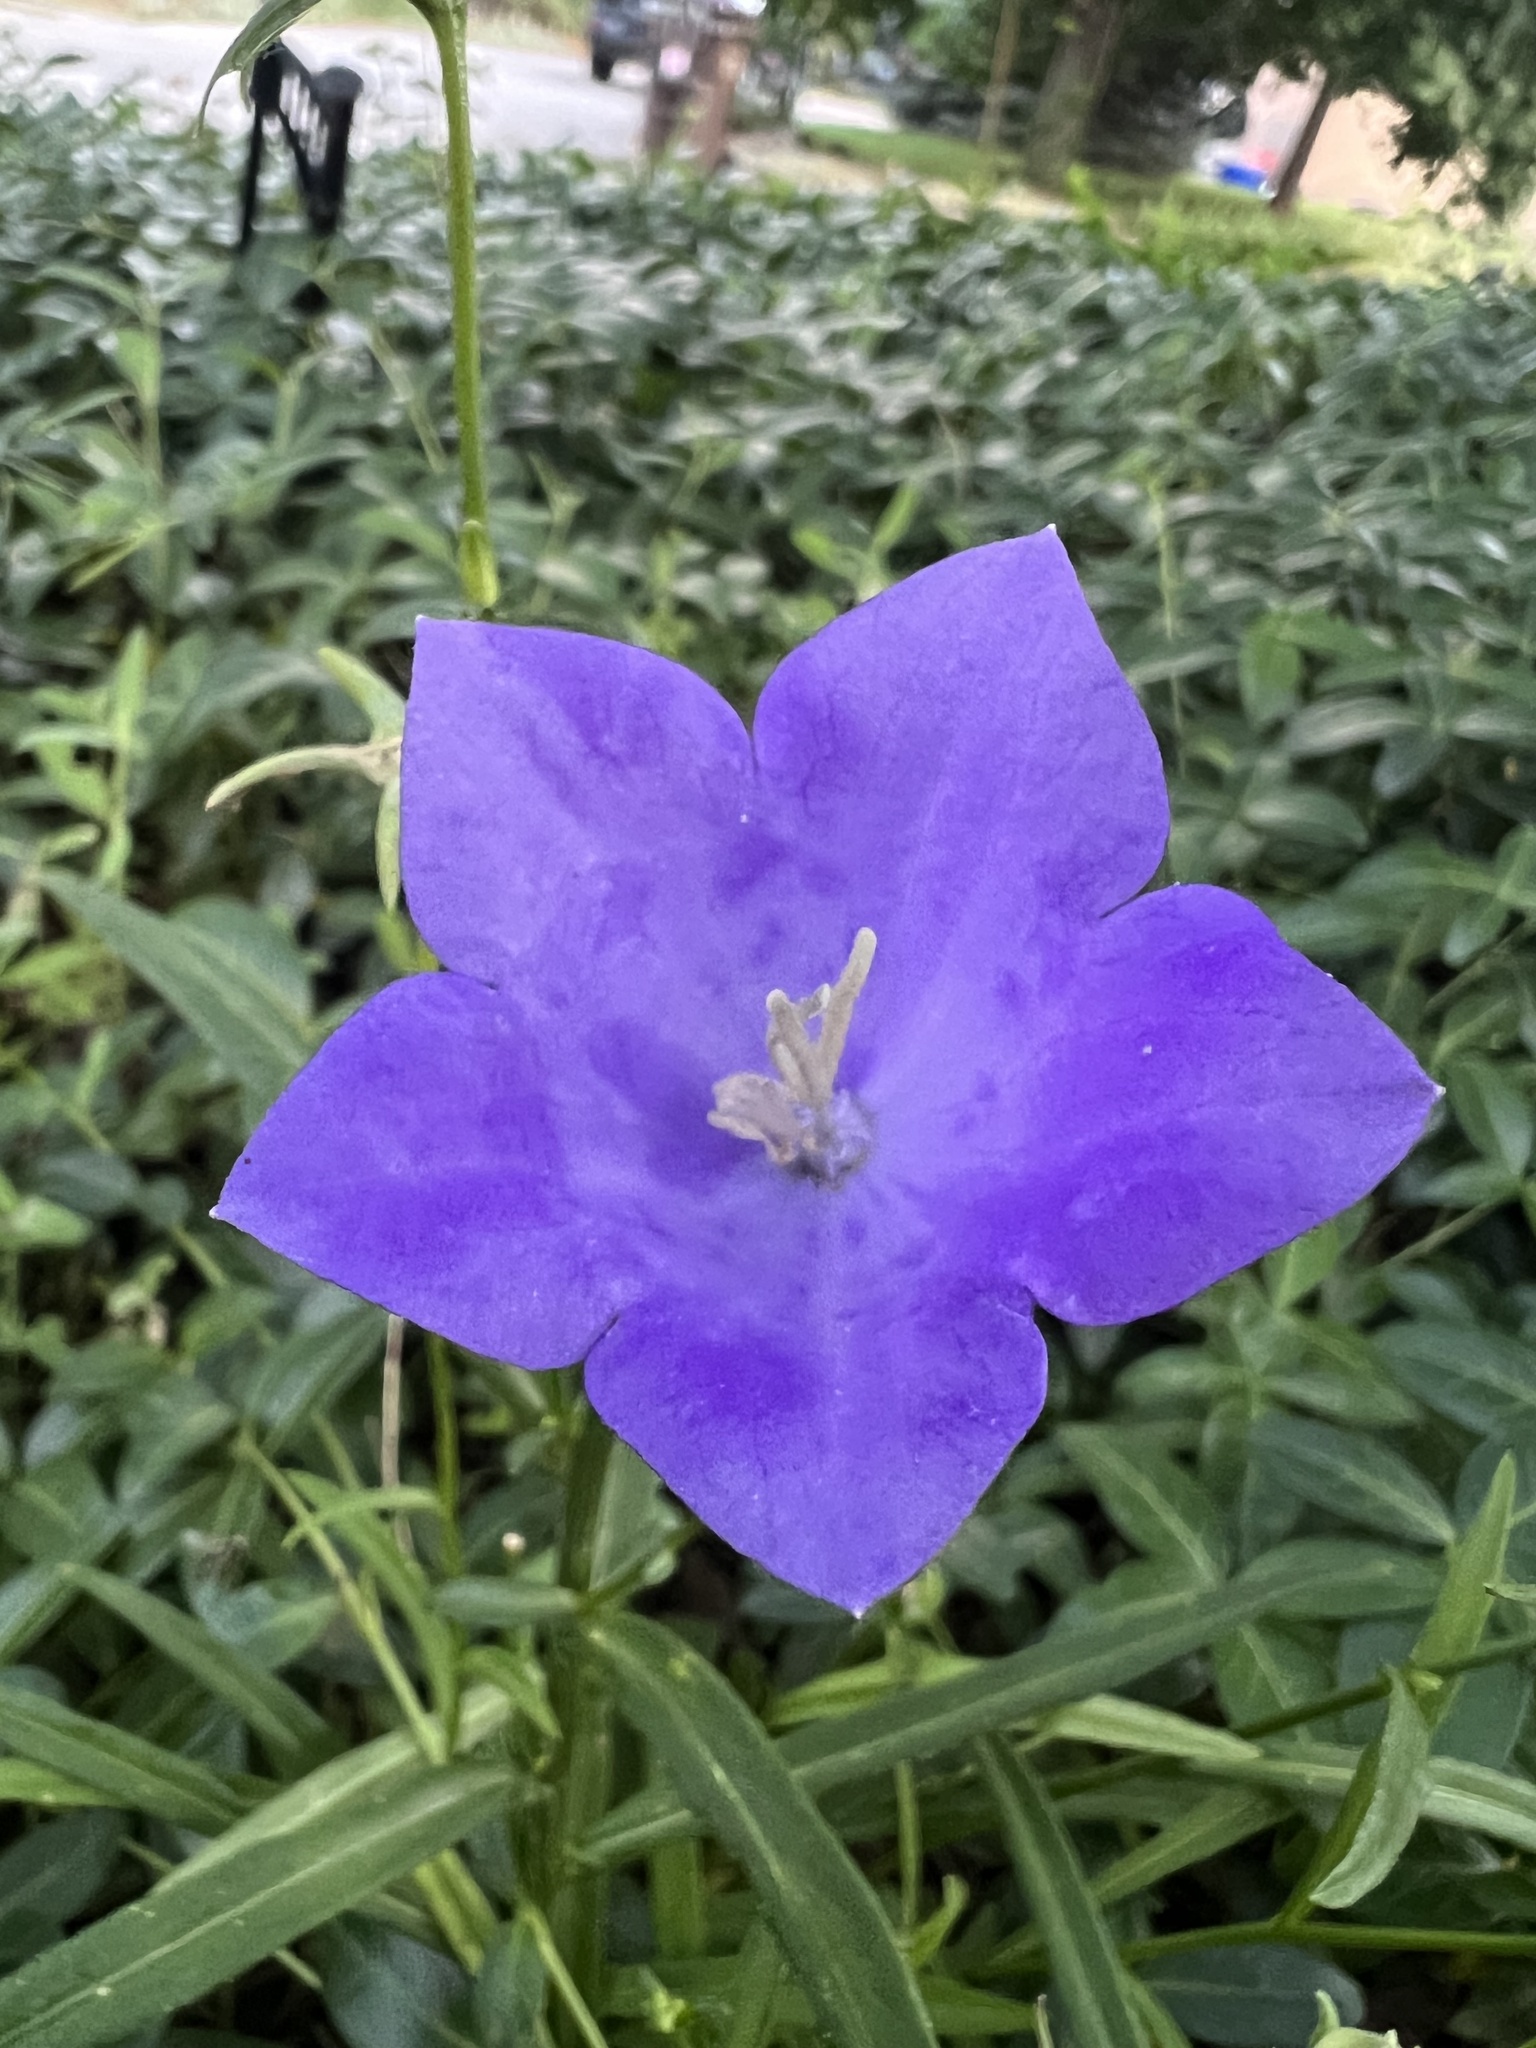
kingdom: Plantae
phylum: Tracheophyta
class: Magnoliopsida
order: Asterales
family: Campanulaceae
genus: Campanula
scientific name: Campanula persicifolia
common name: Peach-leaved bellflower
